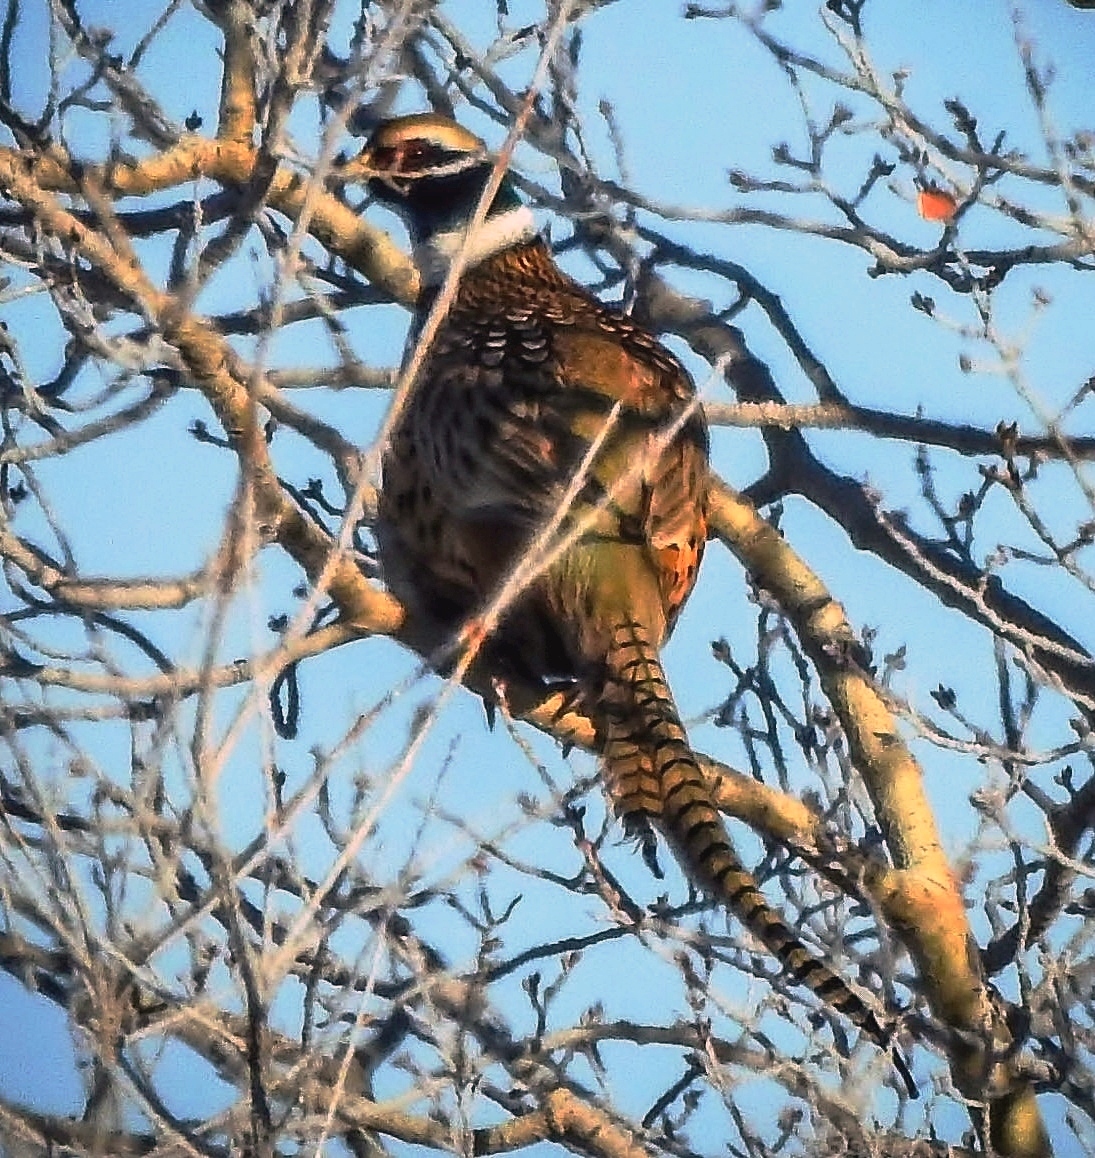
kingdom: Animalia
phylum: Chordata
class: Aves
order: Galliformes
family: Phasianidae
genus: Phasianus
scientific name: Phasianus colchicus
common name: Common pheasant
